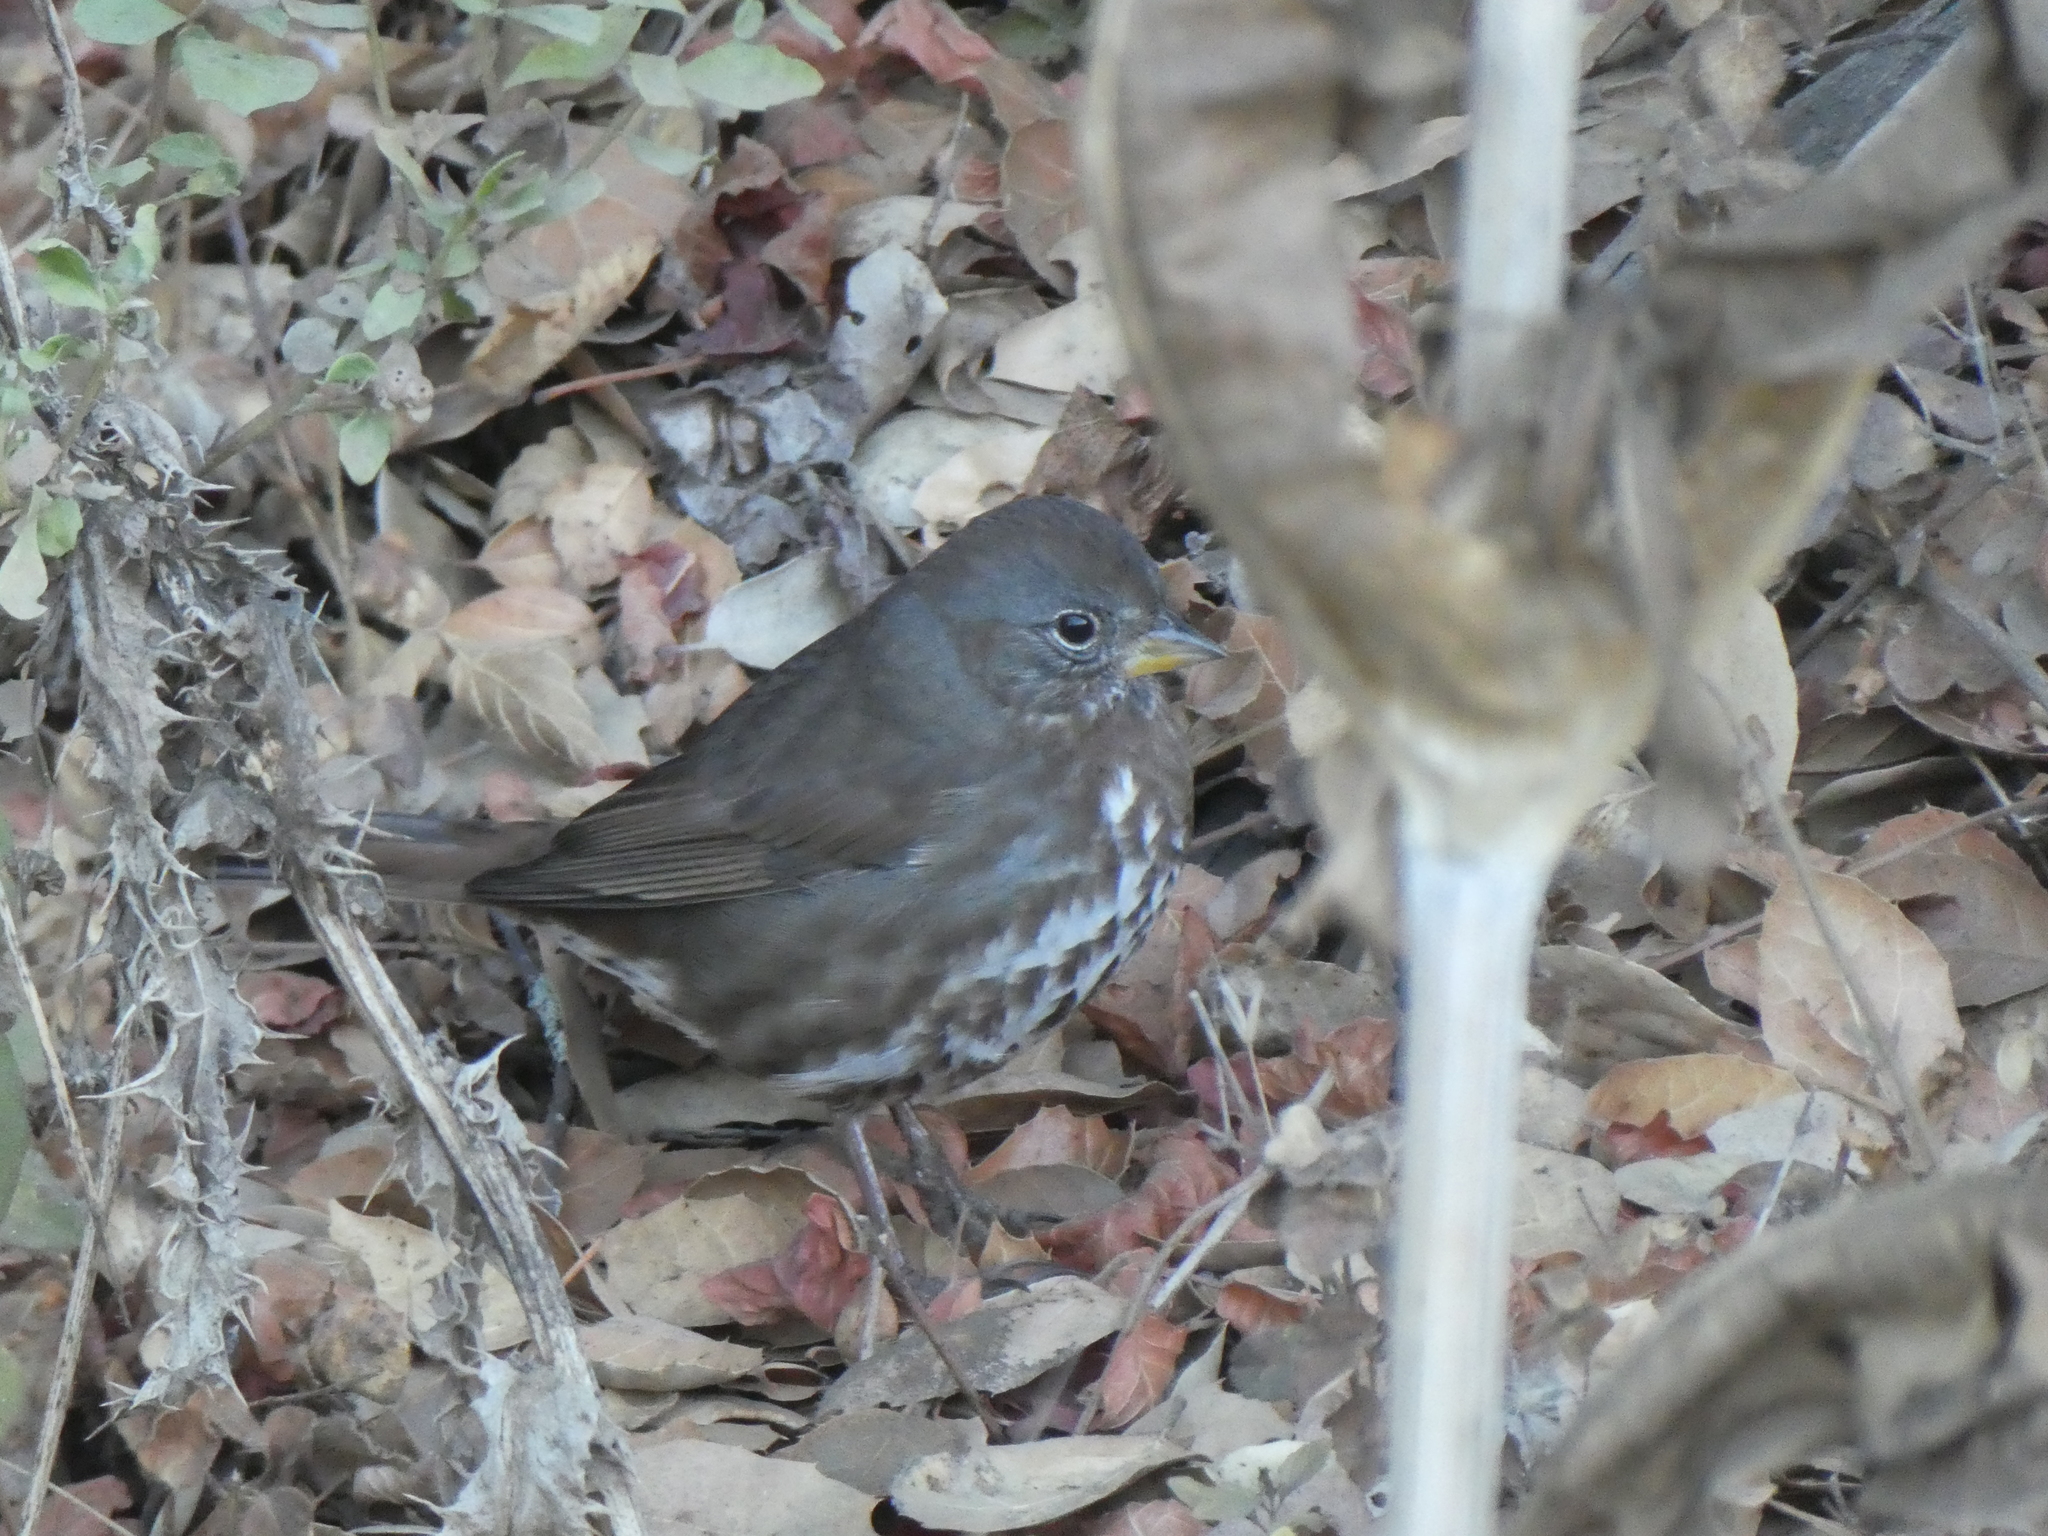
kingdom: Animalia
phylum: Chordata
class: Aves
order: Passeriformes
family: Passerellidae
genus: Passerella
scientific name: Passerella iliaca
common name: Fox sparrow
